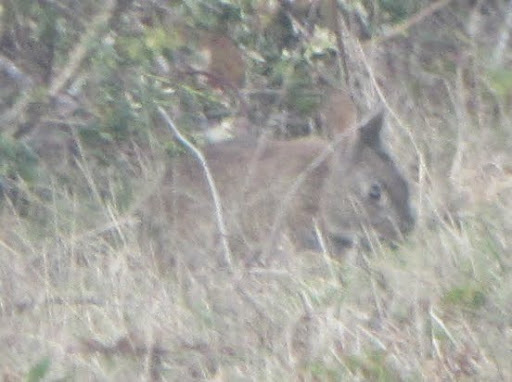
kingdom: Animalia
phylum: Chordata
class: Mammalia
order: Lagomorpha
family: Leporidae
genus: Sylvilagus
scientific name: Sylvilagus bachmani
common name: Brush rabbit
